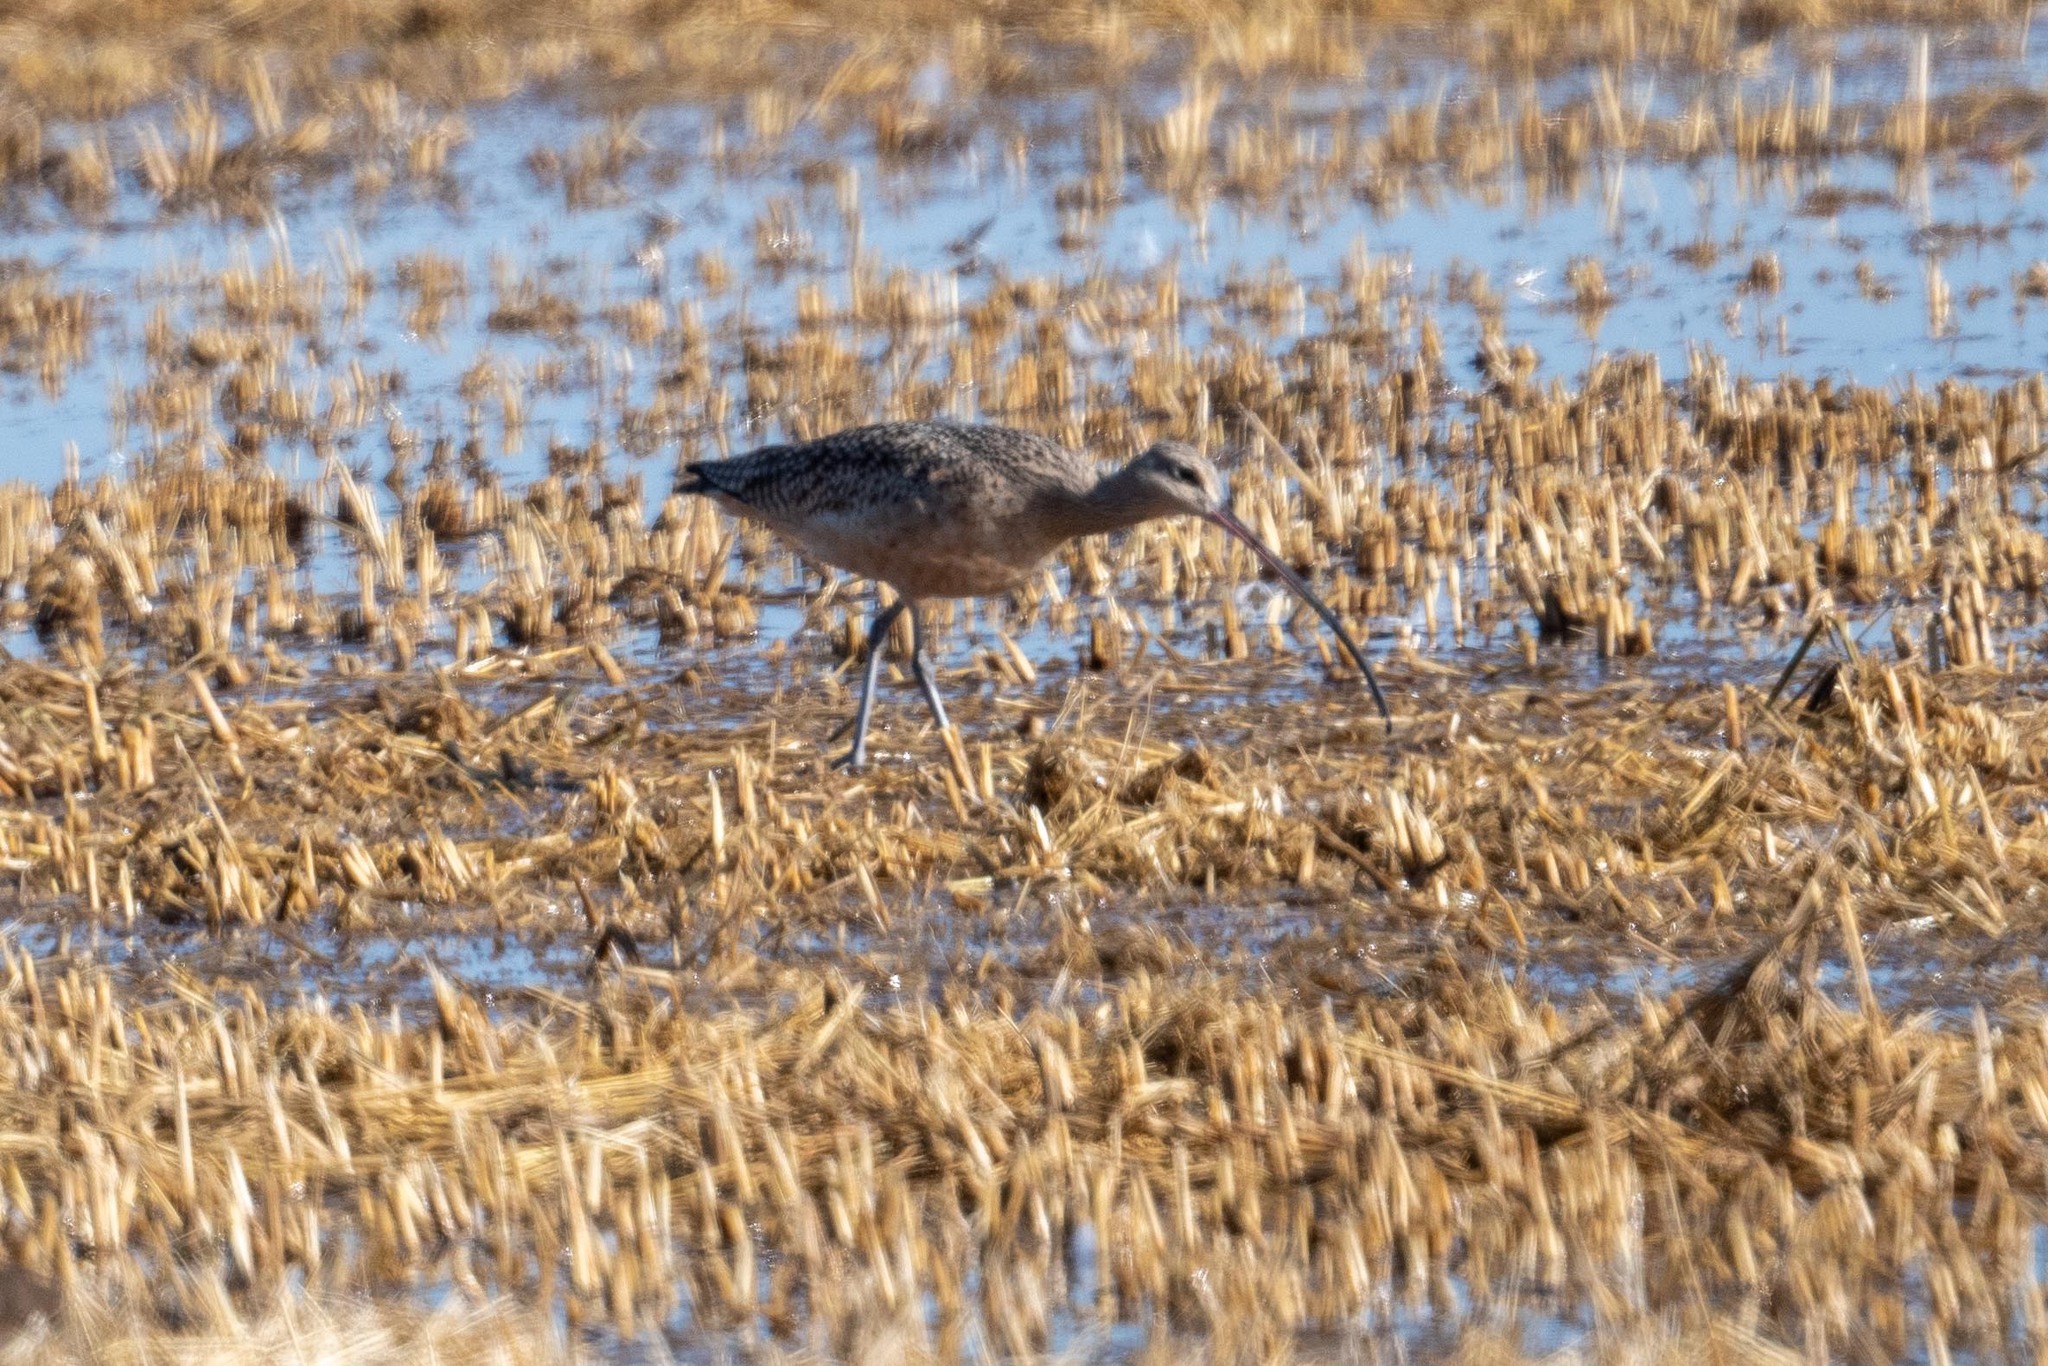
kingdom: Animalia
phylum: Chordata
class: Aves
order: Charadriiformes
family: Scolopacidae
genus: Numenius
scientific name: Numenius americanus
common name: Long-billed curlew
